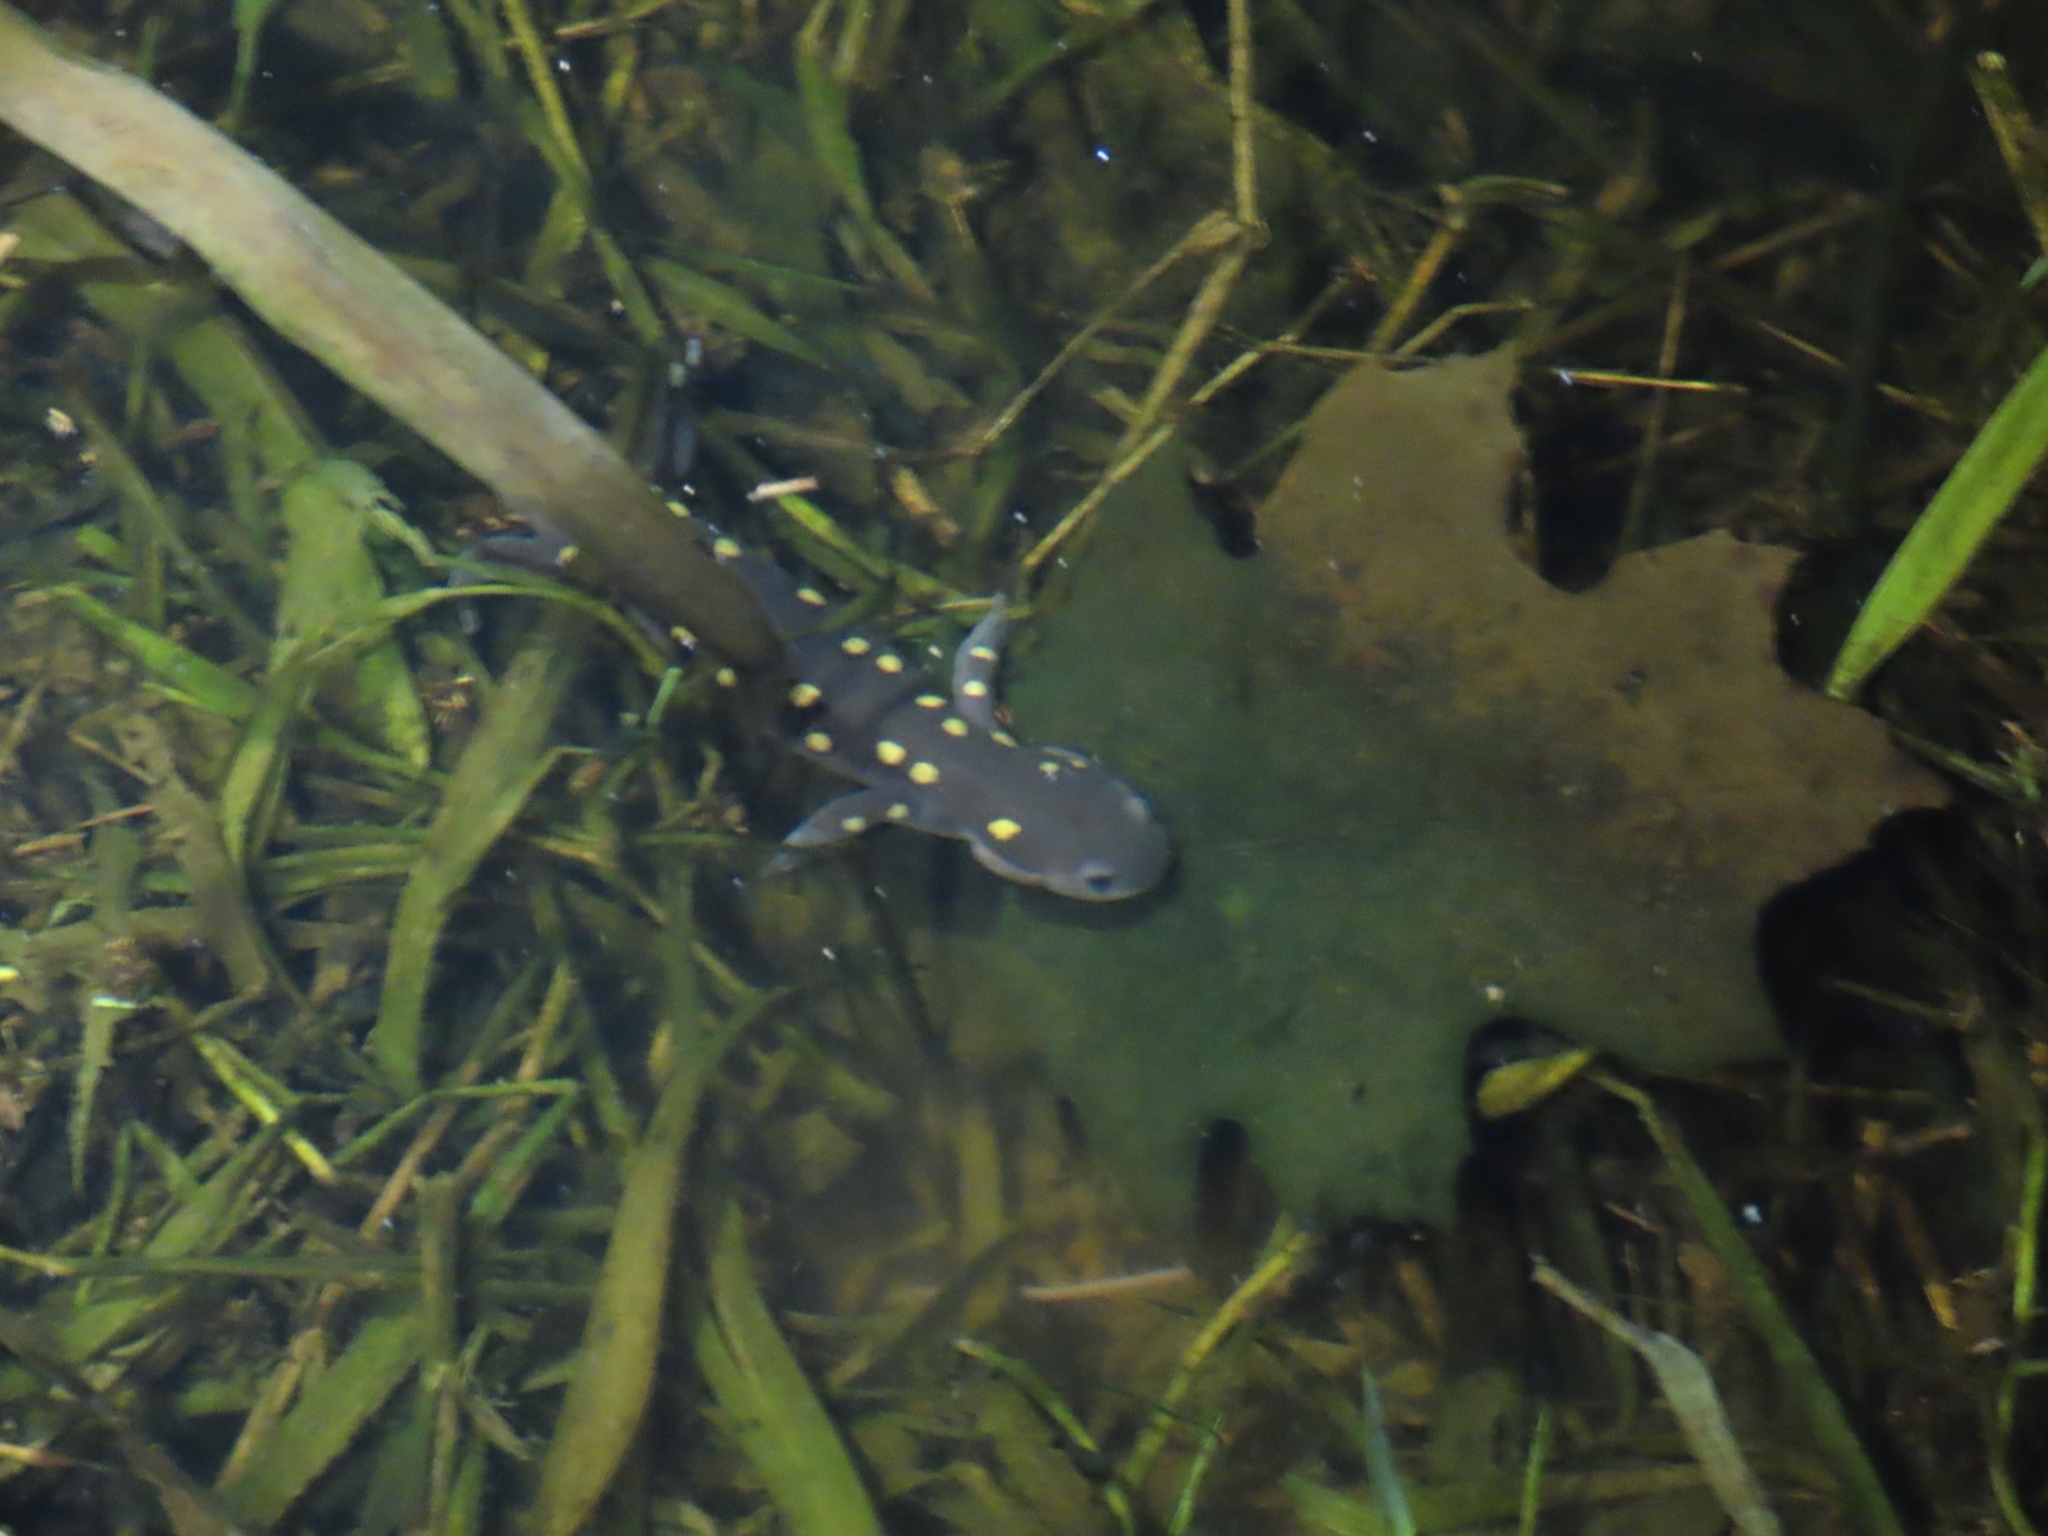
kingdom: Animalia
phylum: Chordata
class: Amphibia
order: Caudata
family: Ambystomatidae
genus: Ambystoma
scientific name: Ambystoma maculatum
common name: Spotted salamander
